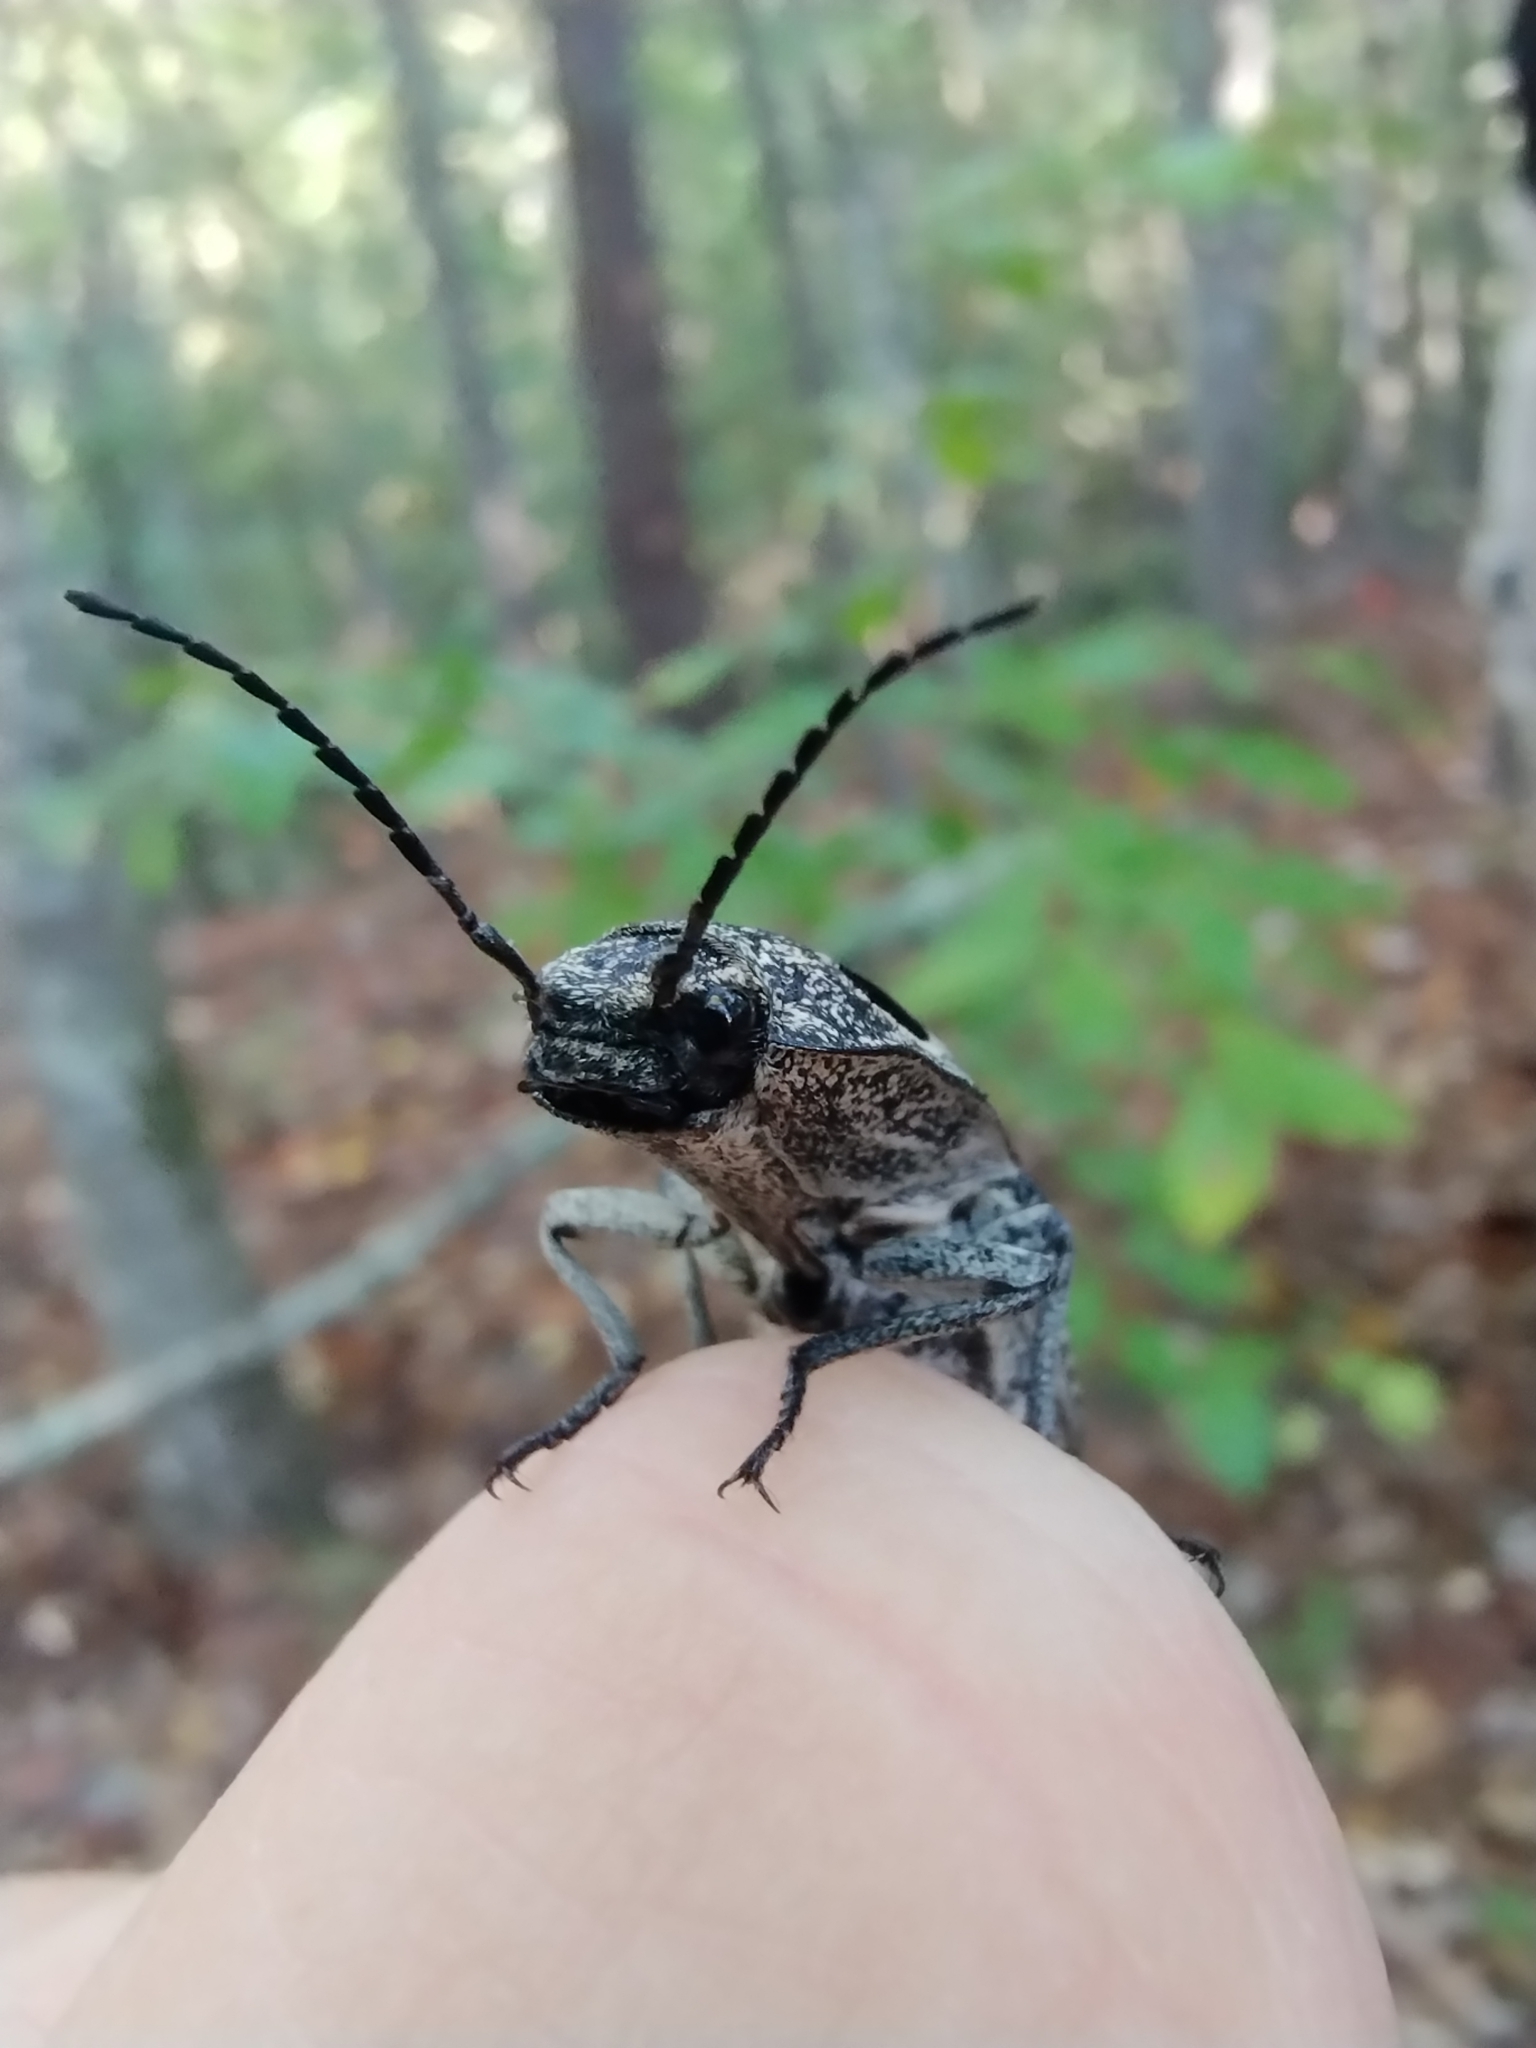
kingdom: Animalia
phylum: Arthropoda
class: Insecta
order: Coleoptera
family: Elateridae
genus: Alaus
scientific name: Alaus oculatus
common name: Eastern eyed click beetle
